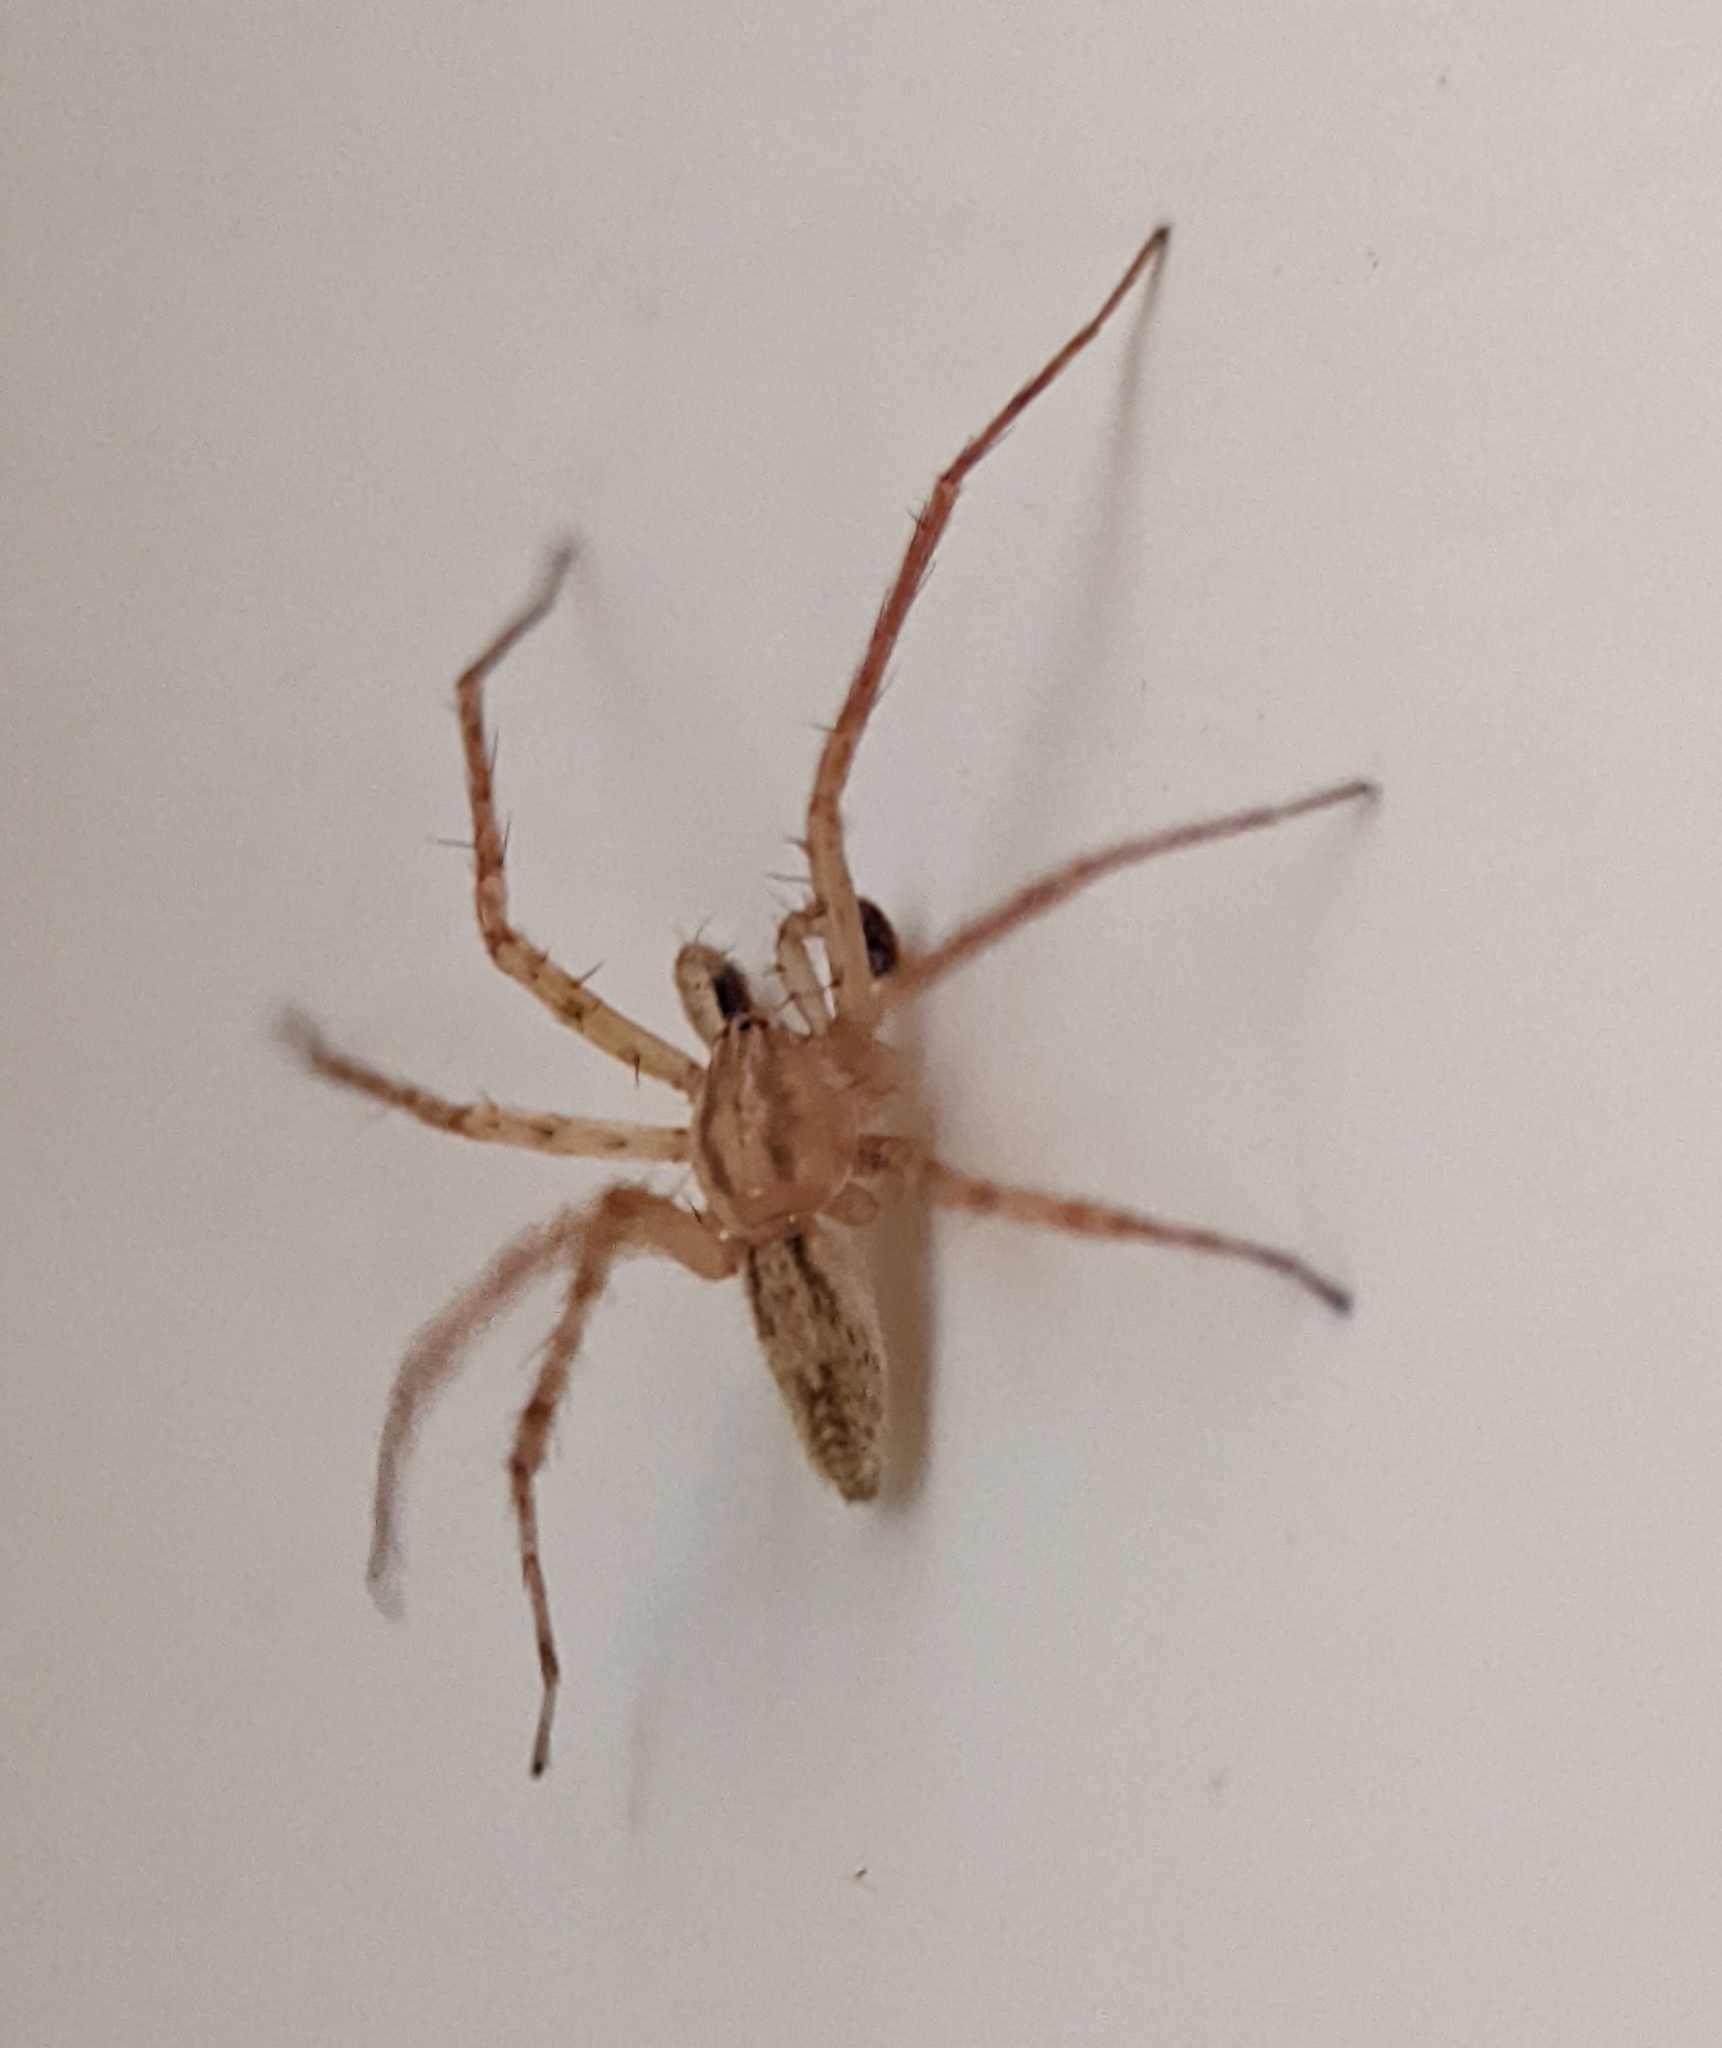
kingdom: Animalia
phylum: Arthropoda
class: Arachnida
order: Araneae
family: Anyphaenidae
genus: Anyphaena
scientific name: Anyphaena
